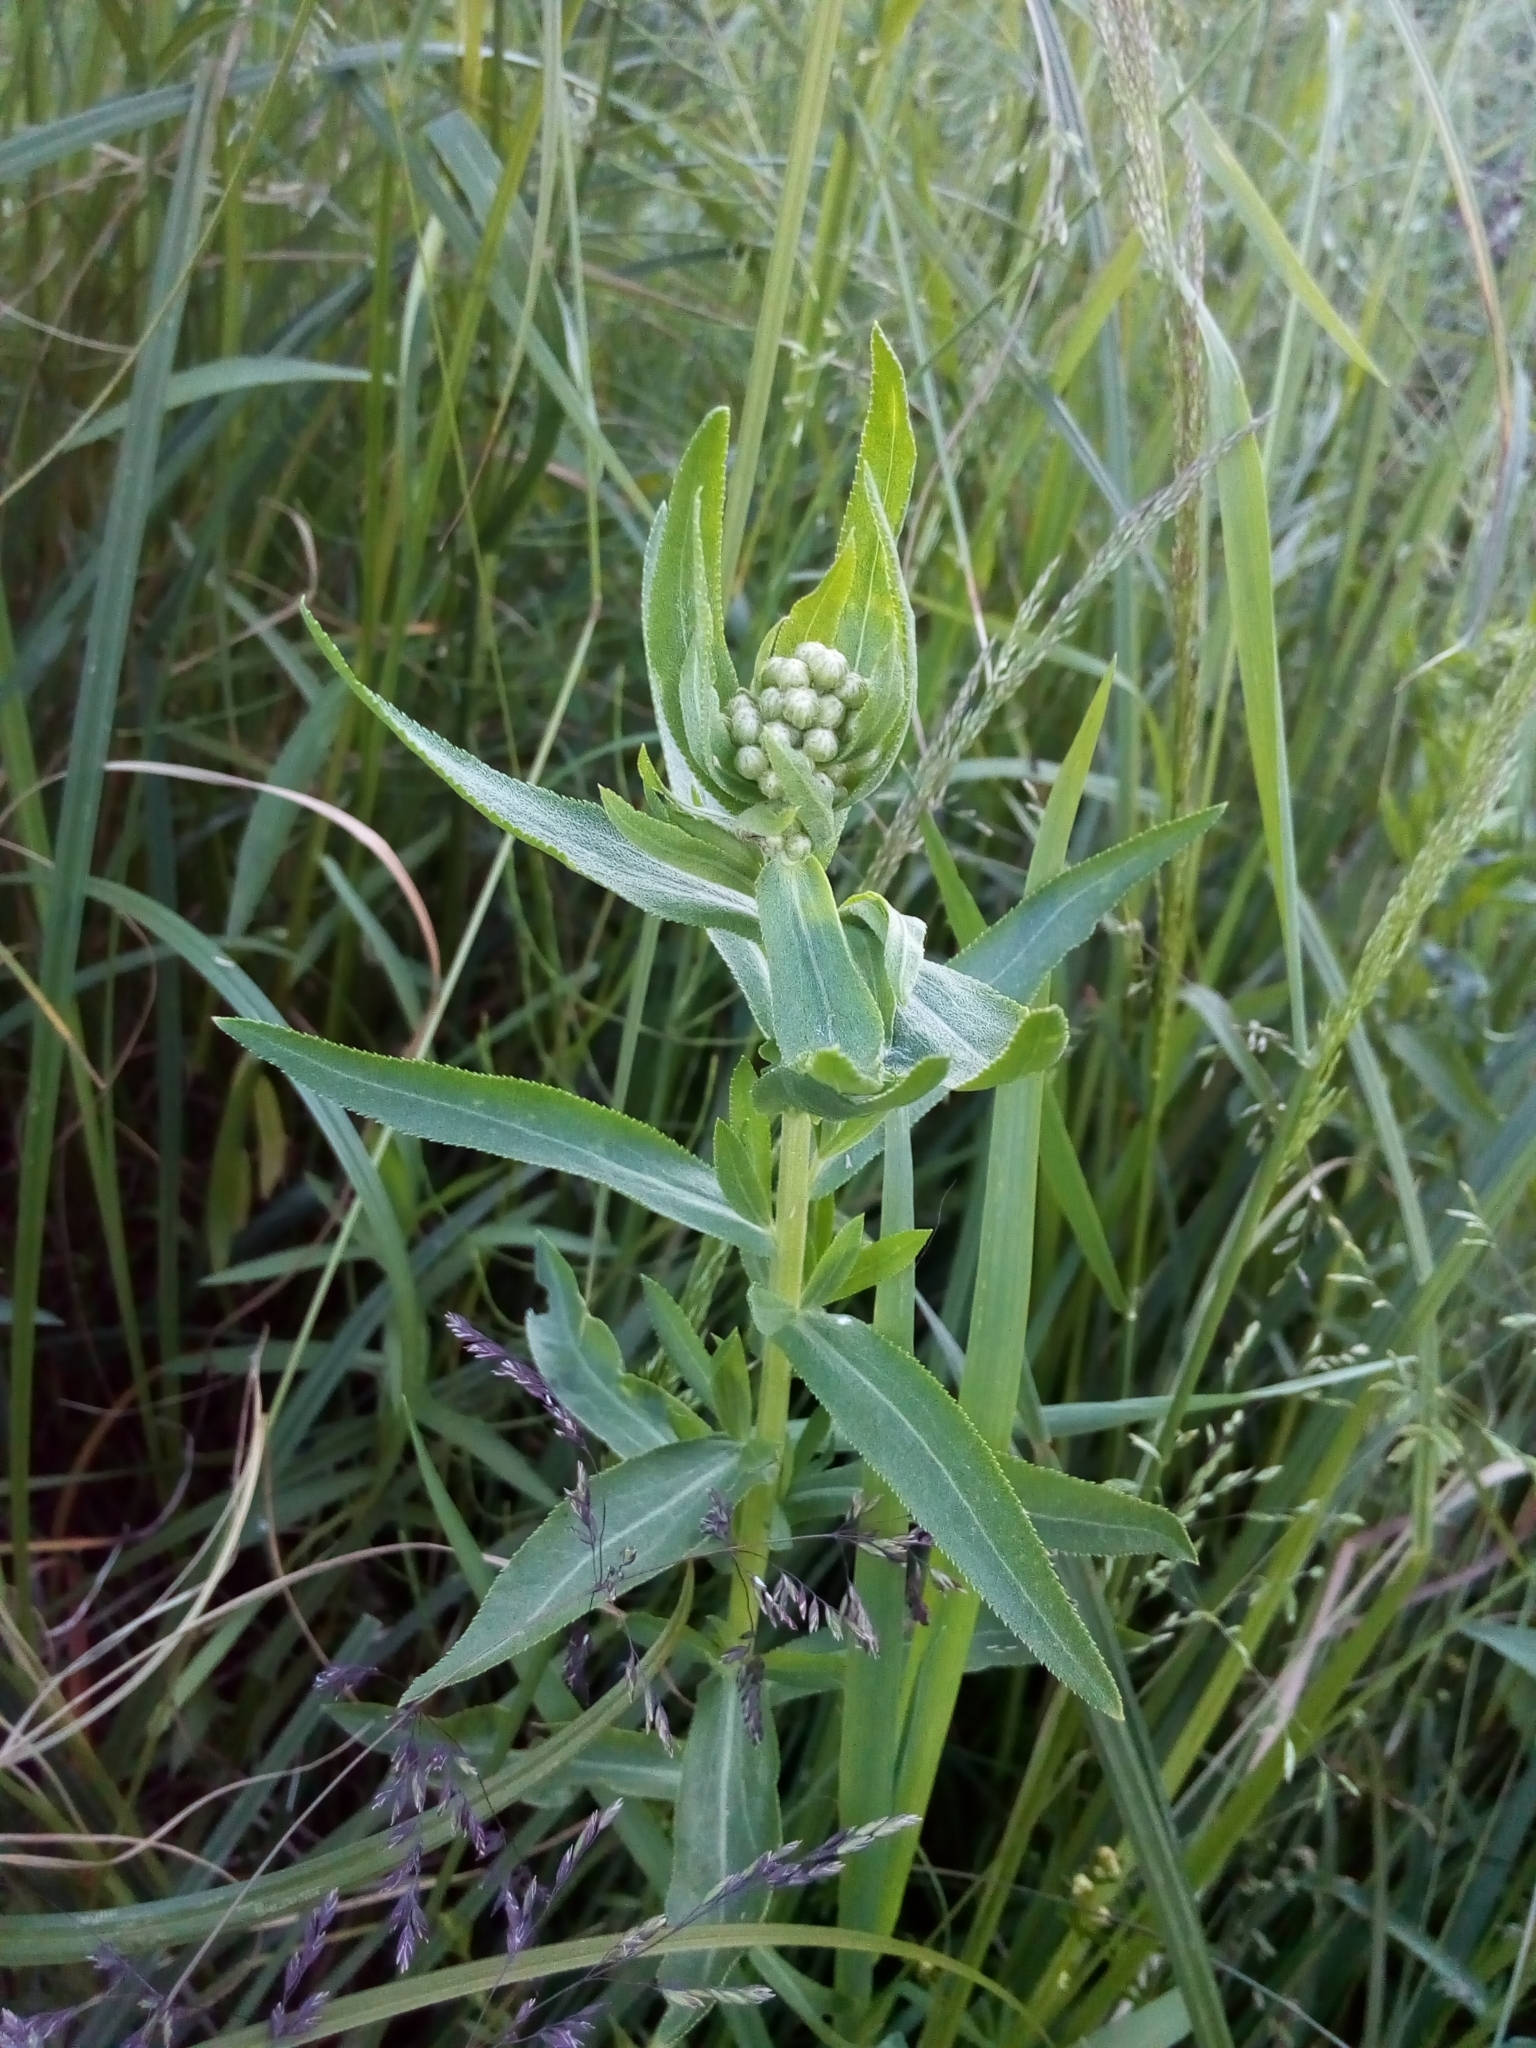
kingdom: Plantae
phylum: Tracheophyta
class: Magnoliopsida
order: Asterales
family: Asteraceae
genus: Achillea
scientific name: Achillea salicifolia
